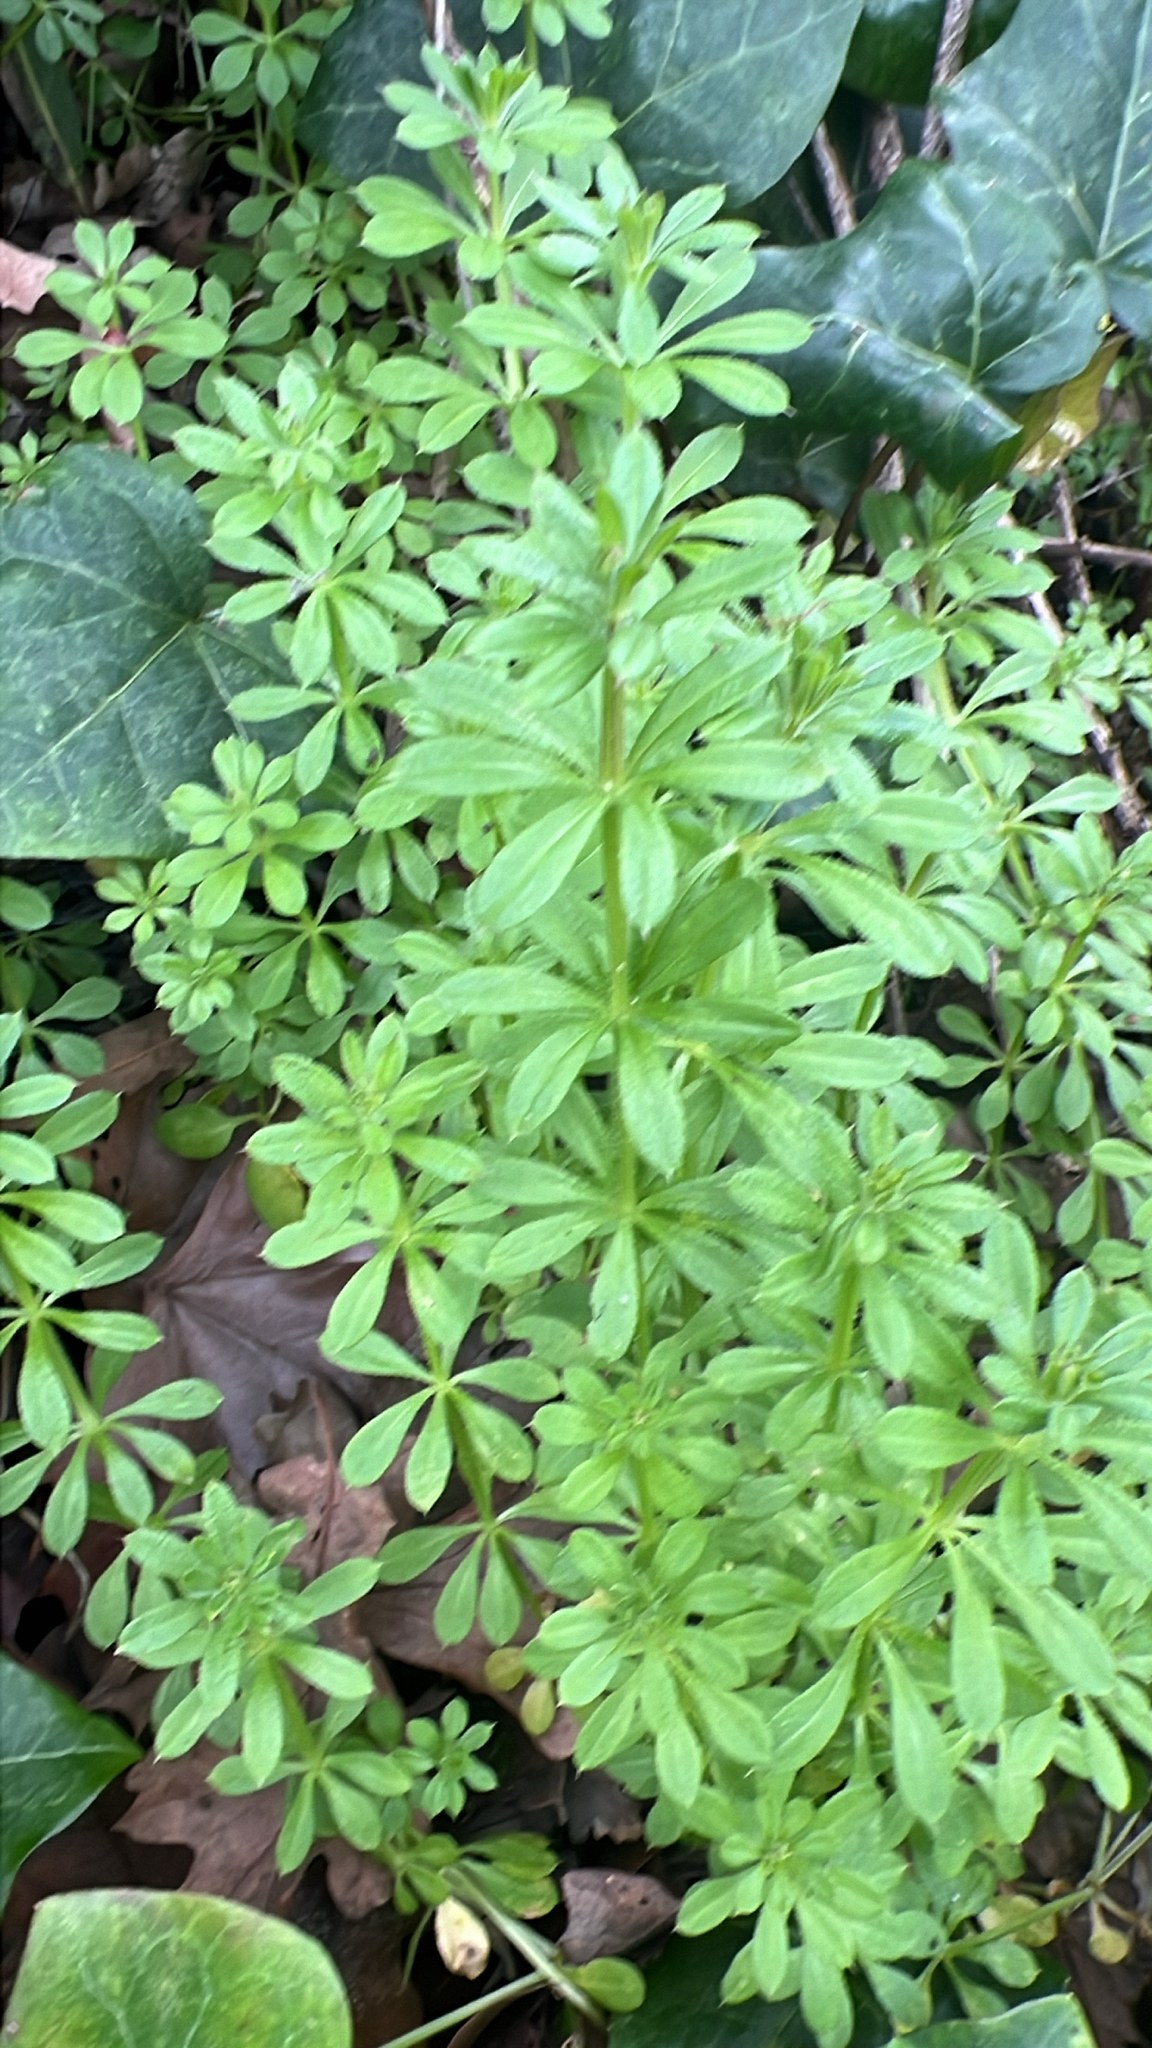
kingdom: Plantae
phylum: Tracheophyta
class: Magnoliopsida
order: Gentianales
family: Rubiaceae
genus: Galium
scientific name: Galium aparine
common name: Cleavers
